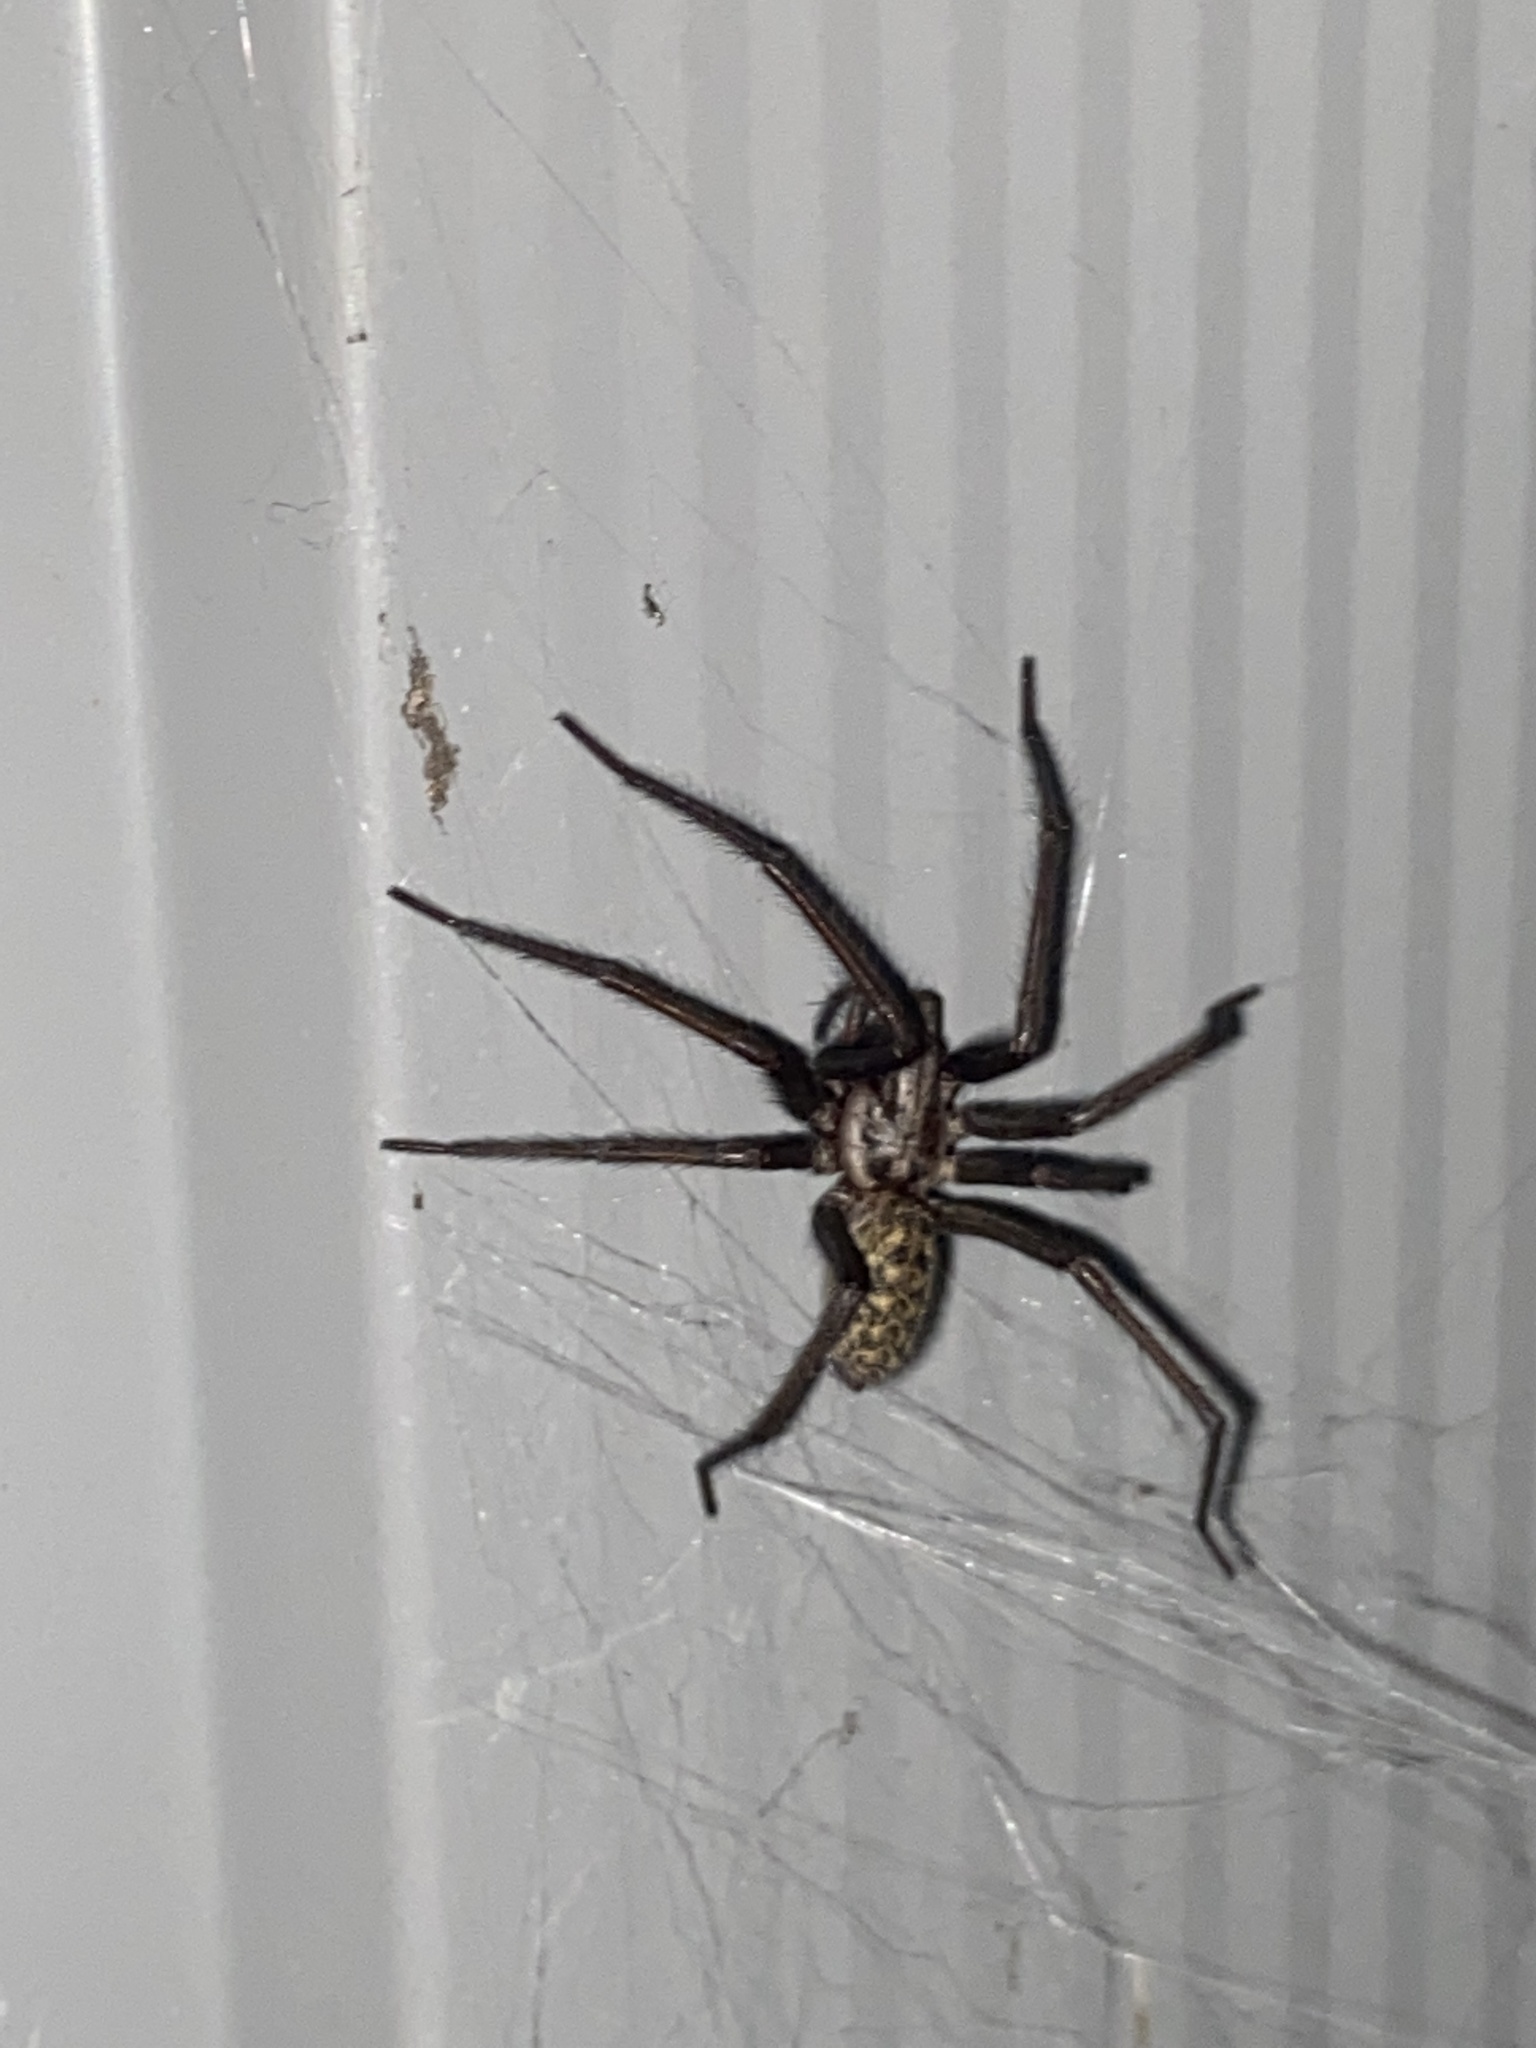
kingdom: Animalia
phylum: Arthropoda
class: Arachnida
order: Araneae
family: Agelenidae
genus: Eratigena
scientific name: Eratigena atrica
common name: Giant house spider
